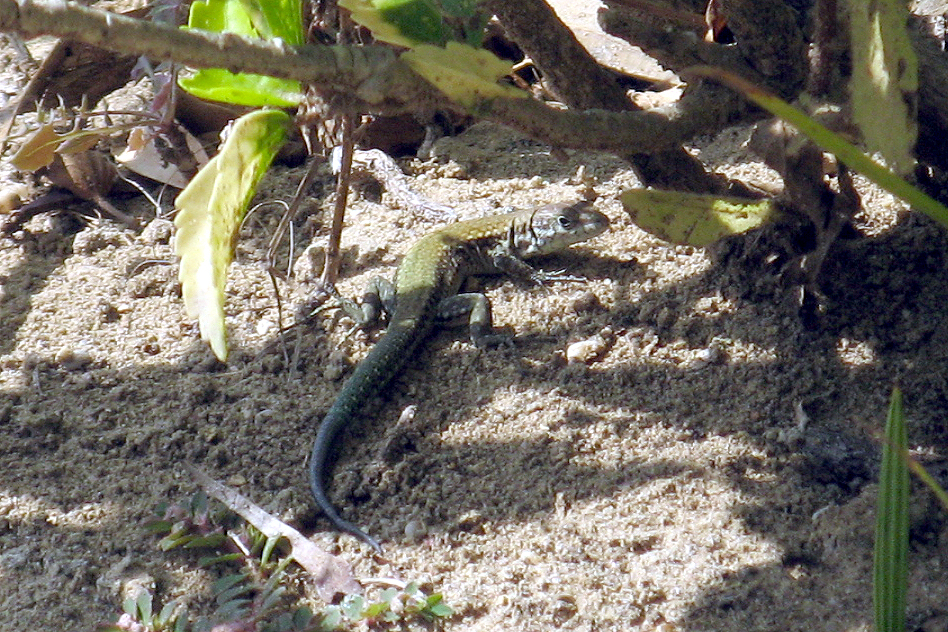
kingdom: Animalia
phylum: Chordata
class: Squamata
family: Lacertidae
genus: Podarcis
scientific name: Podarcis vaucheri
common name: Vaucher's wall lizard
